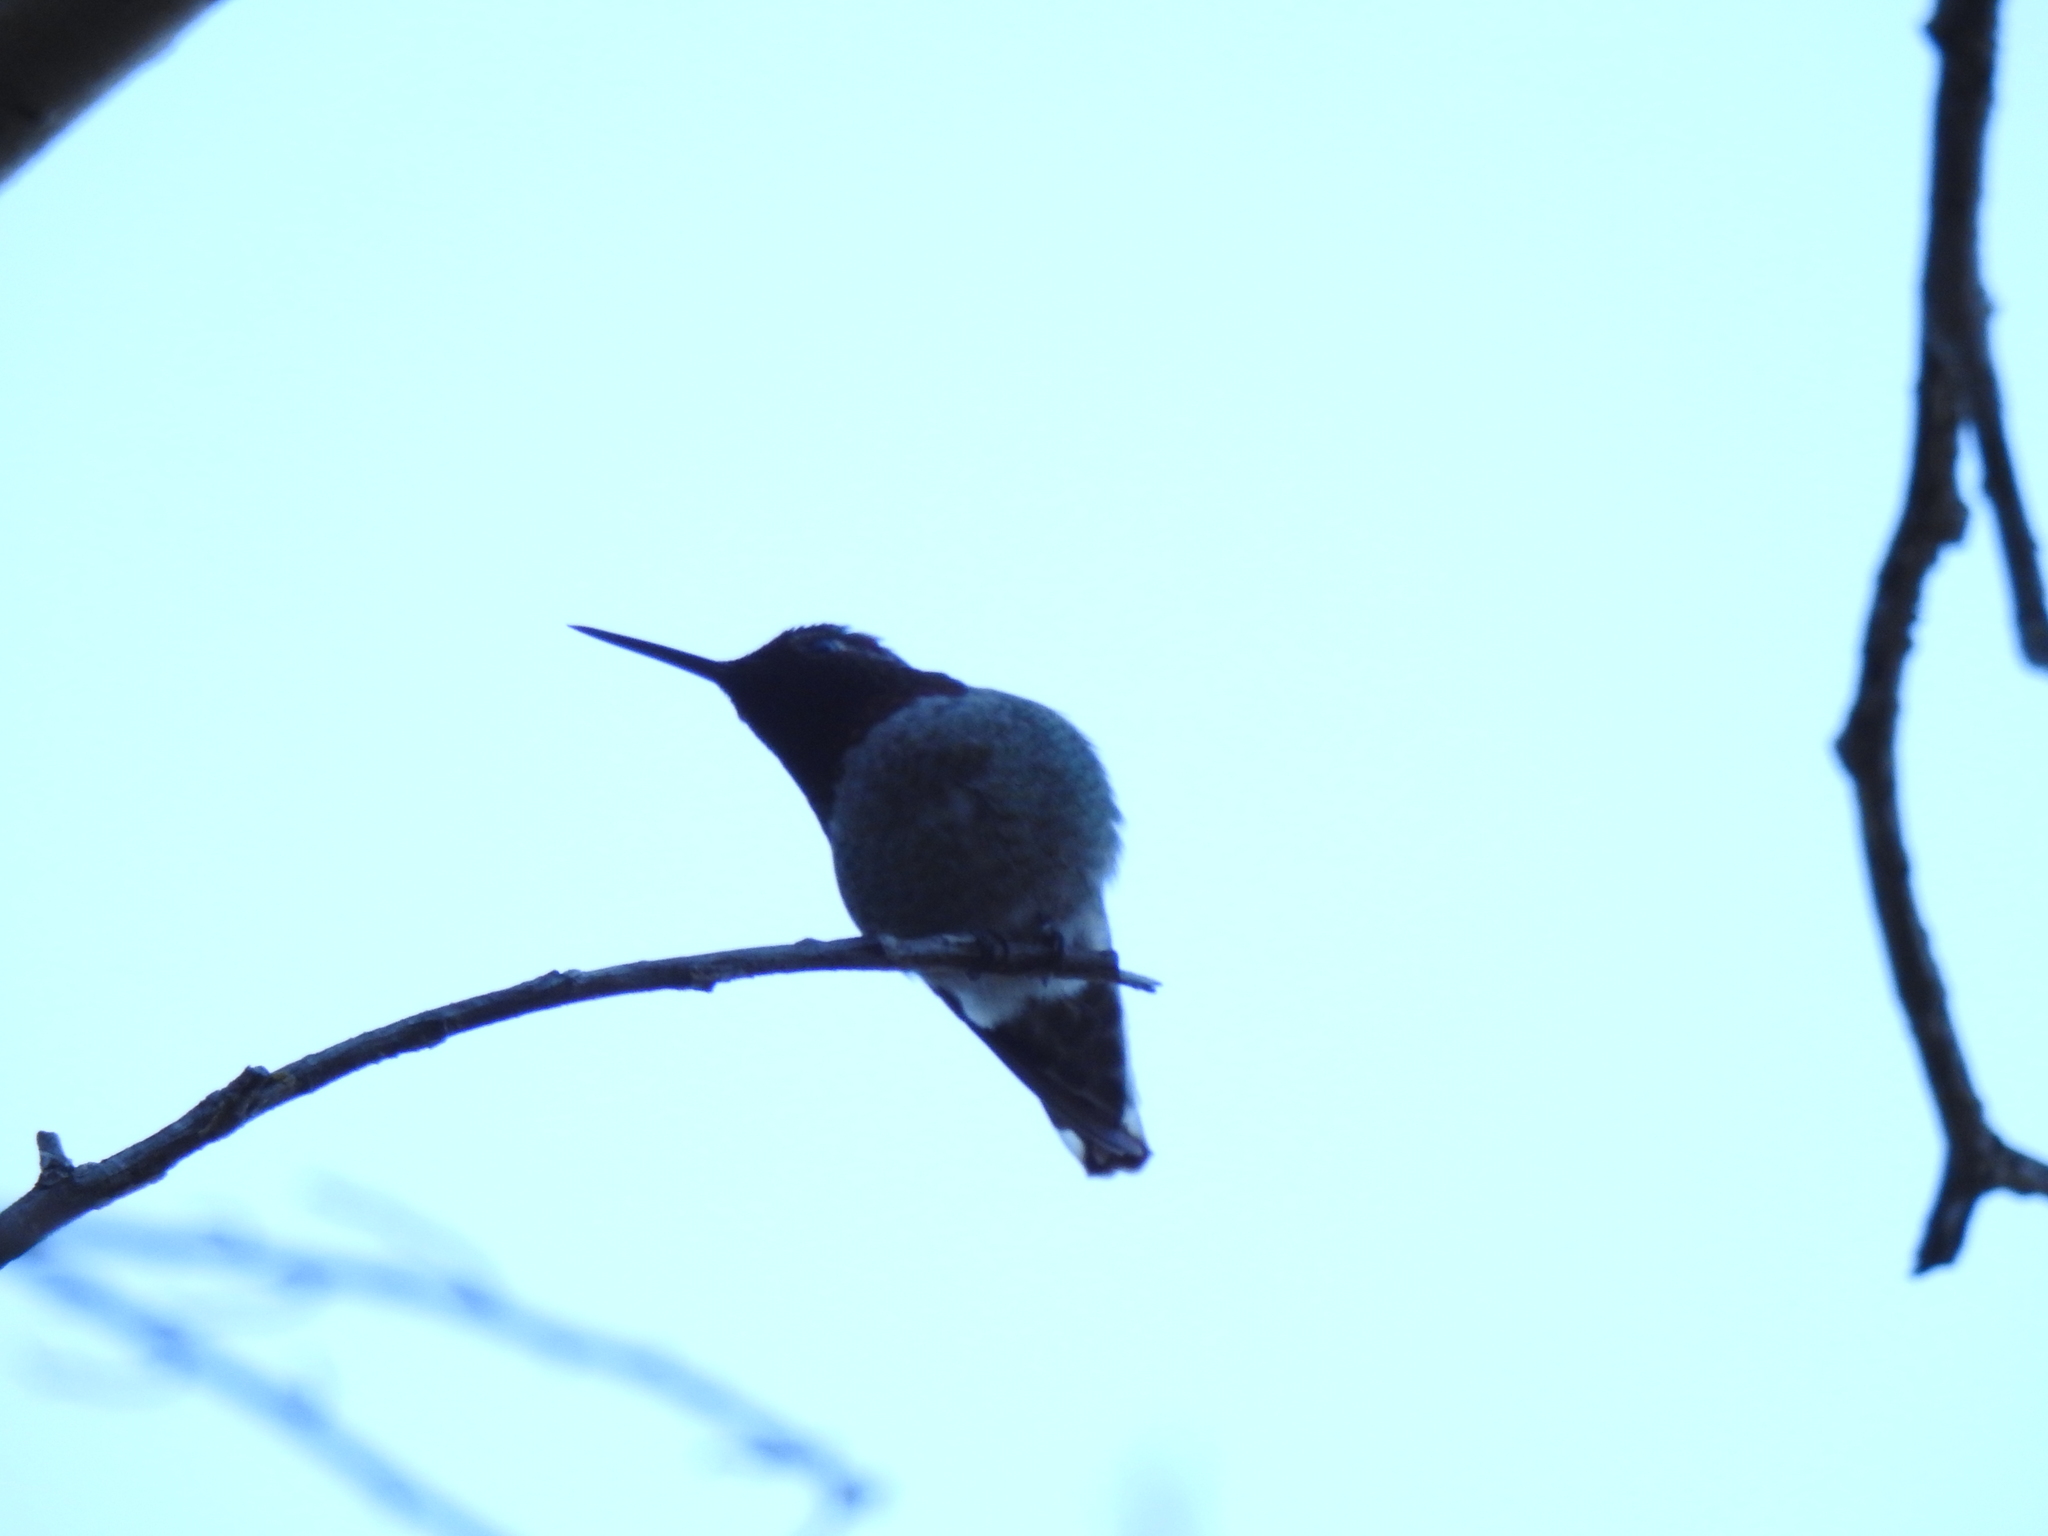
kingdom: Animalia
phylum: Chordata
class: Aves
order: Apodiformes
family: Trochilidae
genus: Calypte
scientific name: Calypte anna
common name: Anna's hummingbird
